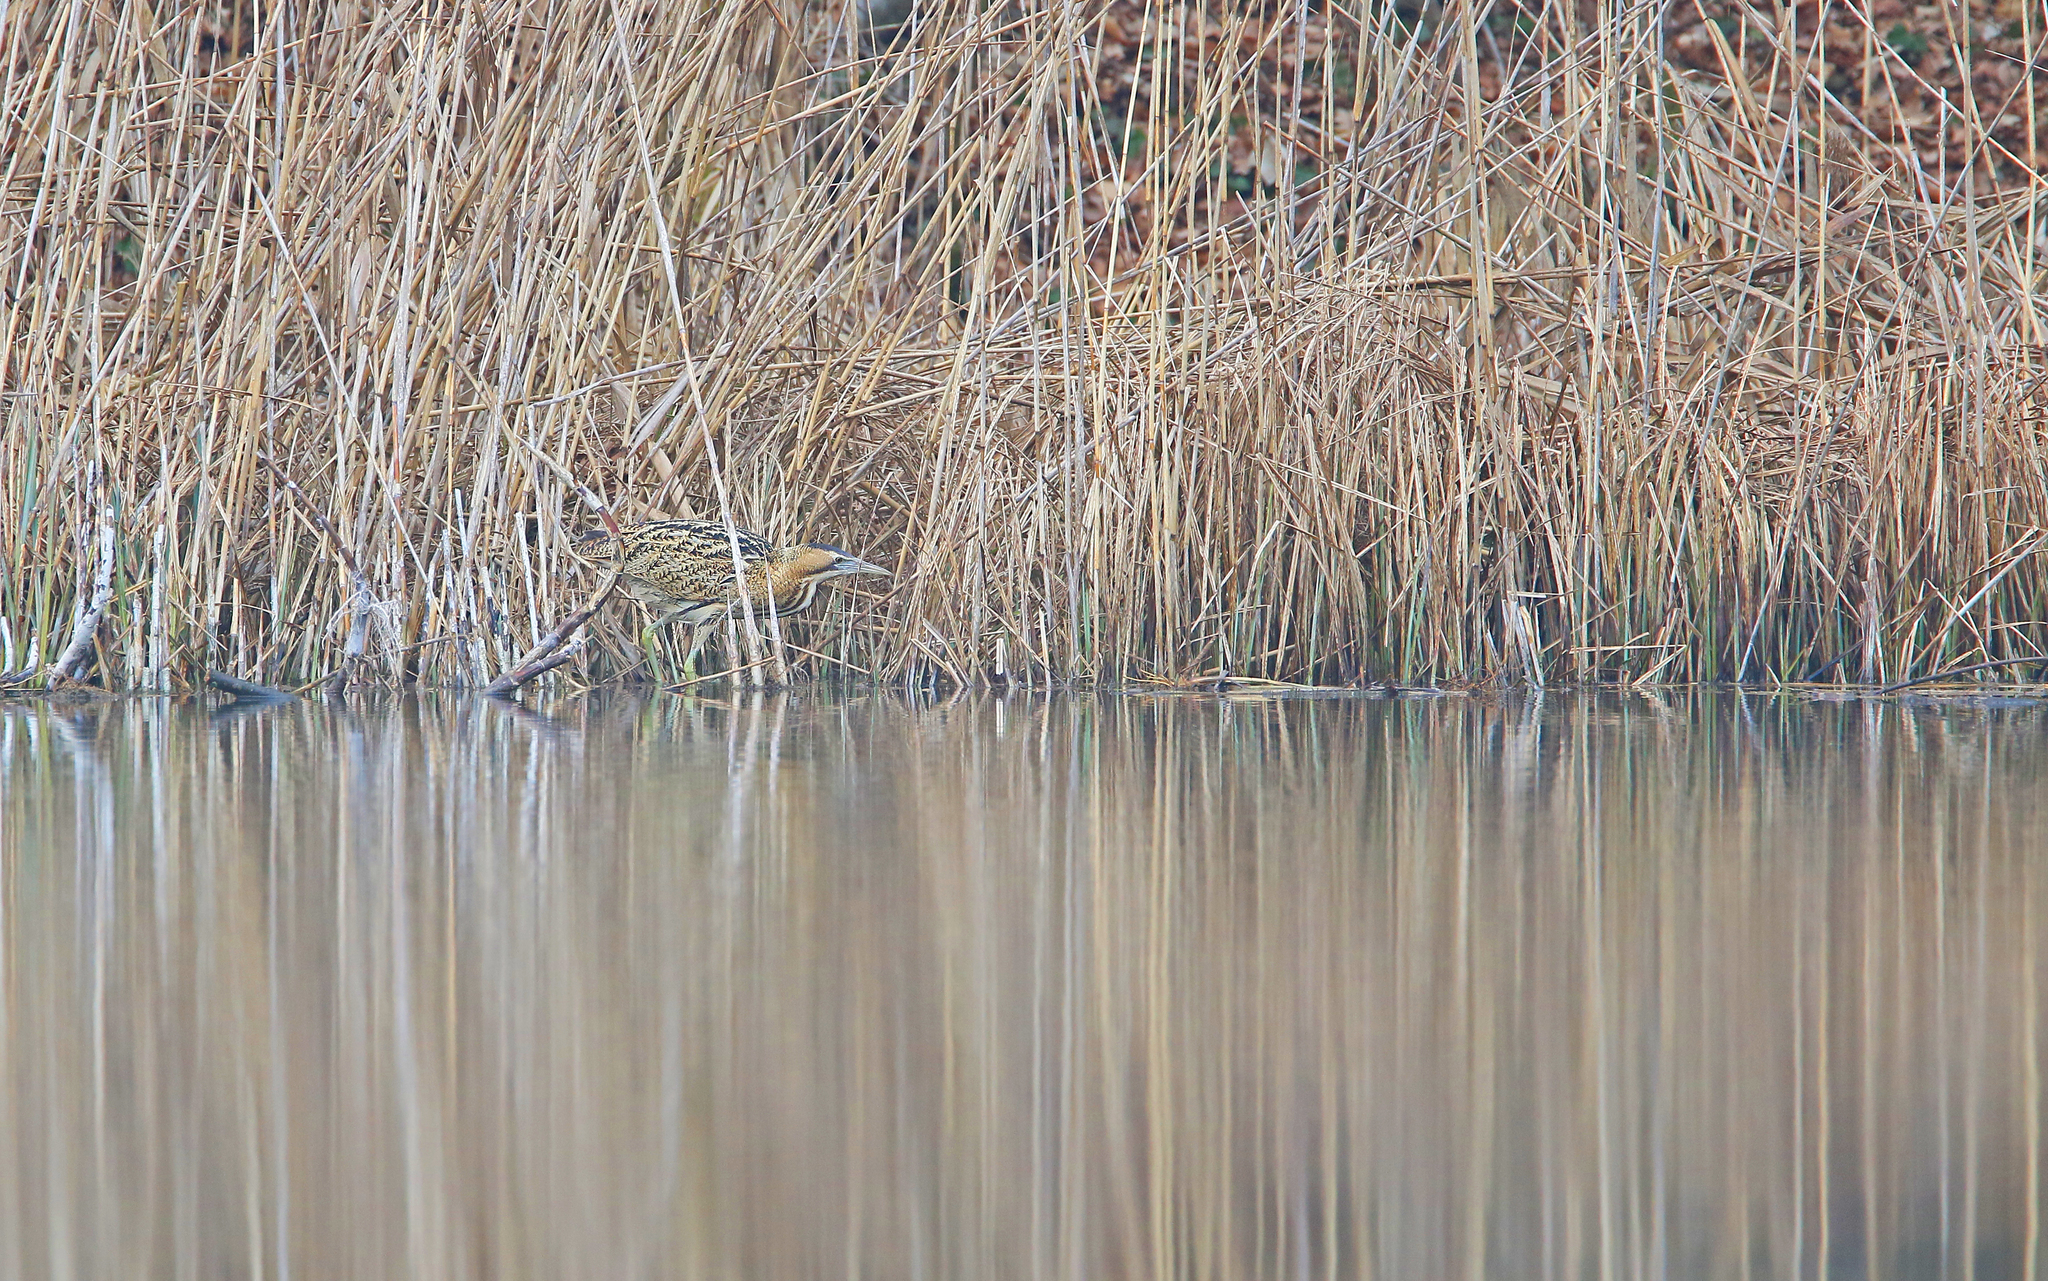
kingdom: Animalia
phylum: Chordata
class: Aves
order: Pelecaniformes
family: Ardeidae
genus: Botaurus
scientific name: Botaurus stellaris
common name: Eurasian bittern
